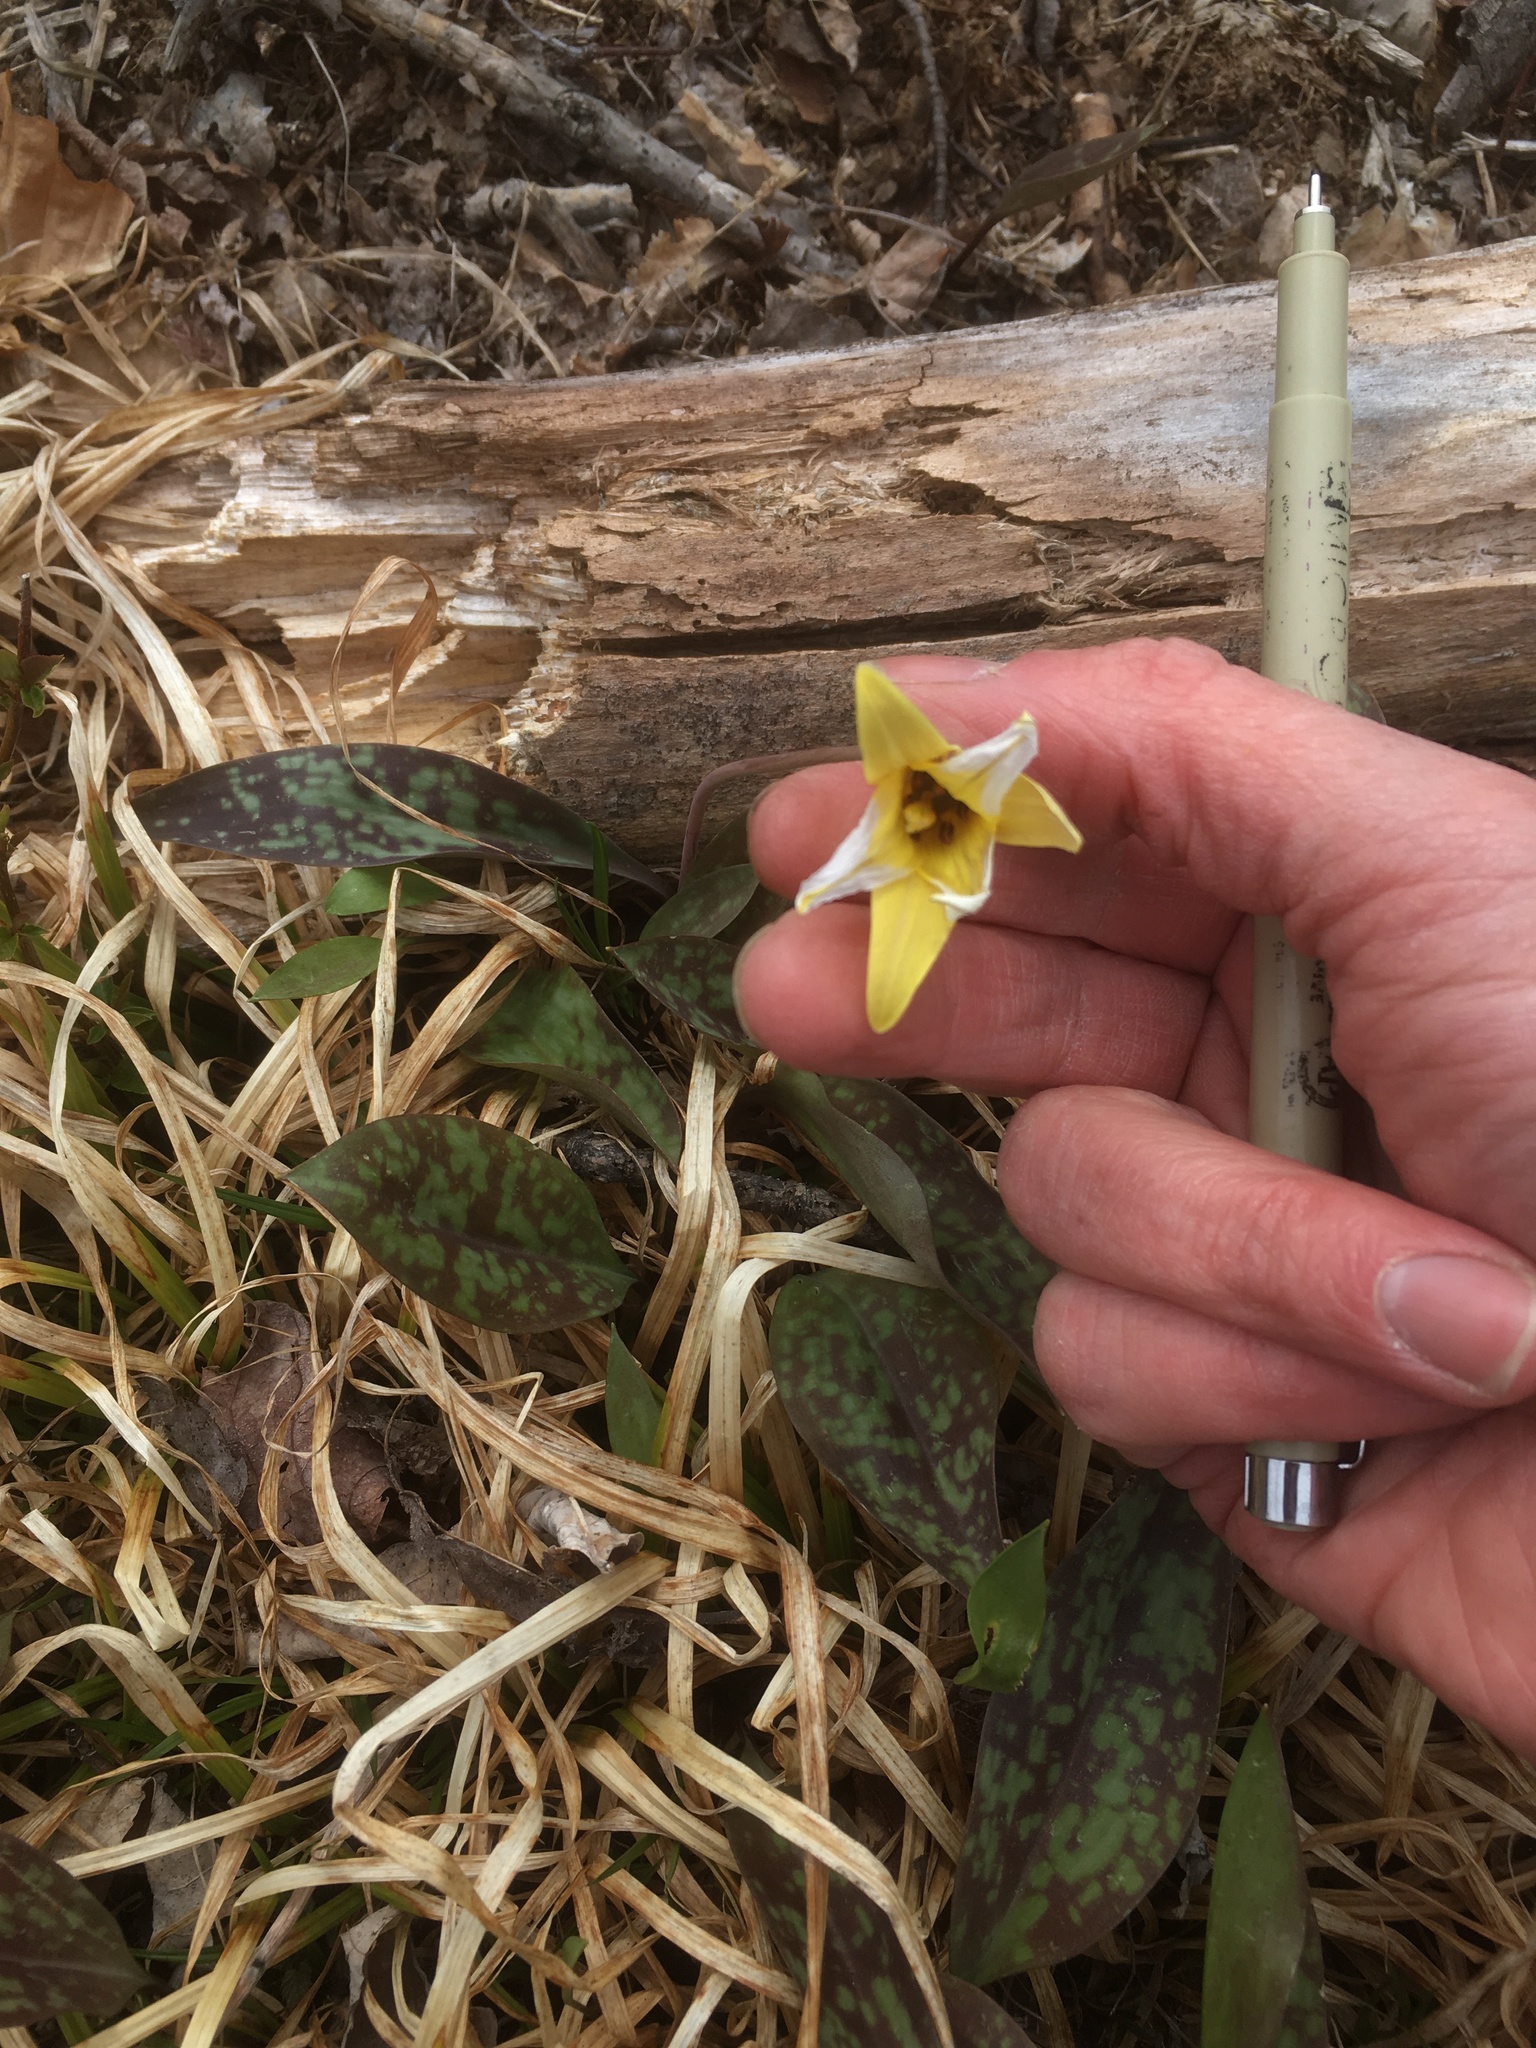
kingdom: Plantae
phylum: Tracheophyta
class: Liliopsida
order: Liliales
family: Liliaceae
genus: Erythronium
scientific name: Erythronium americanum
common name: Yellow adder's-tongue
